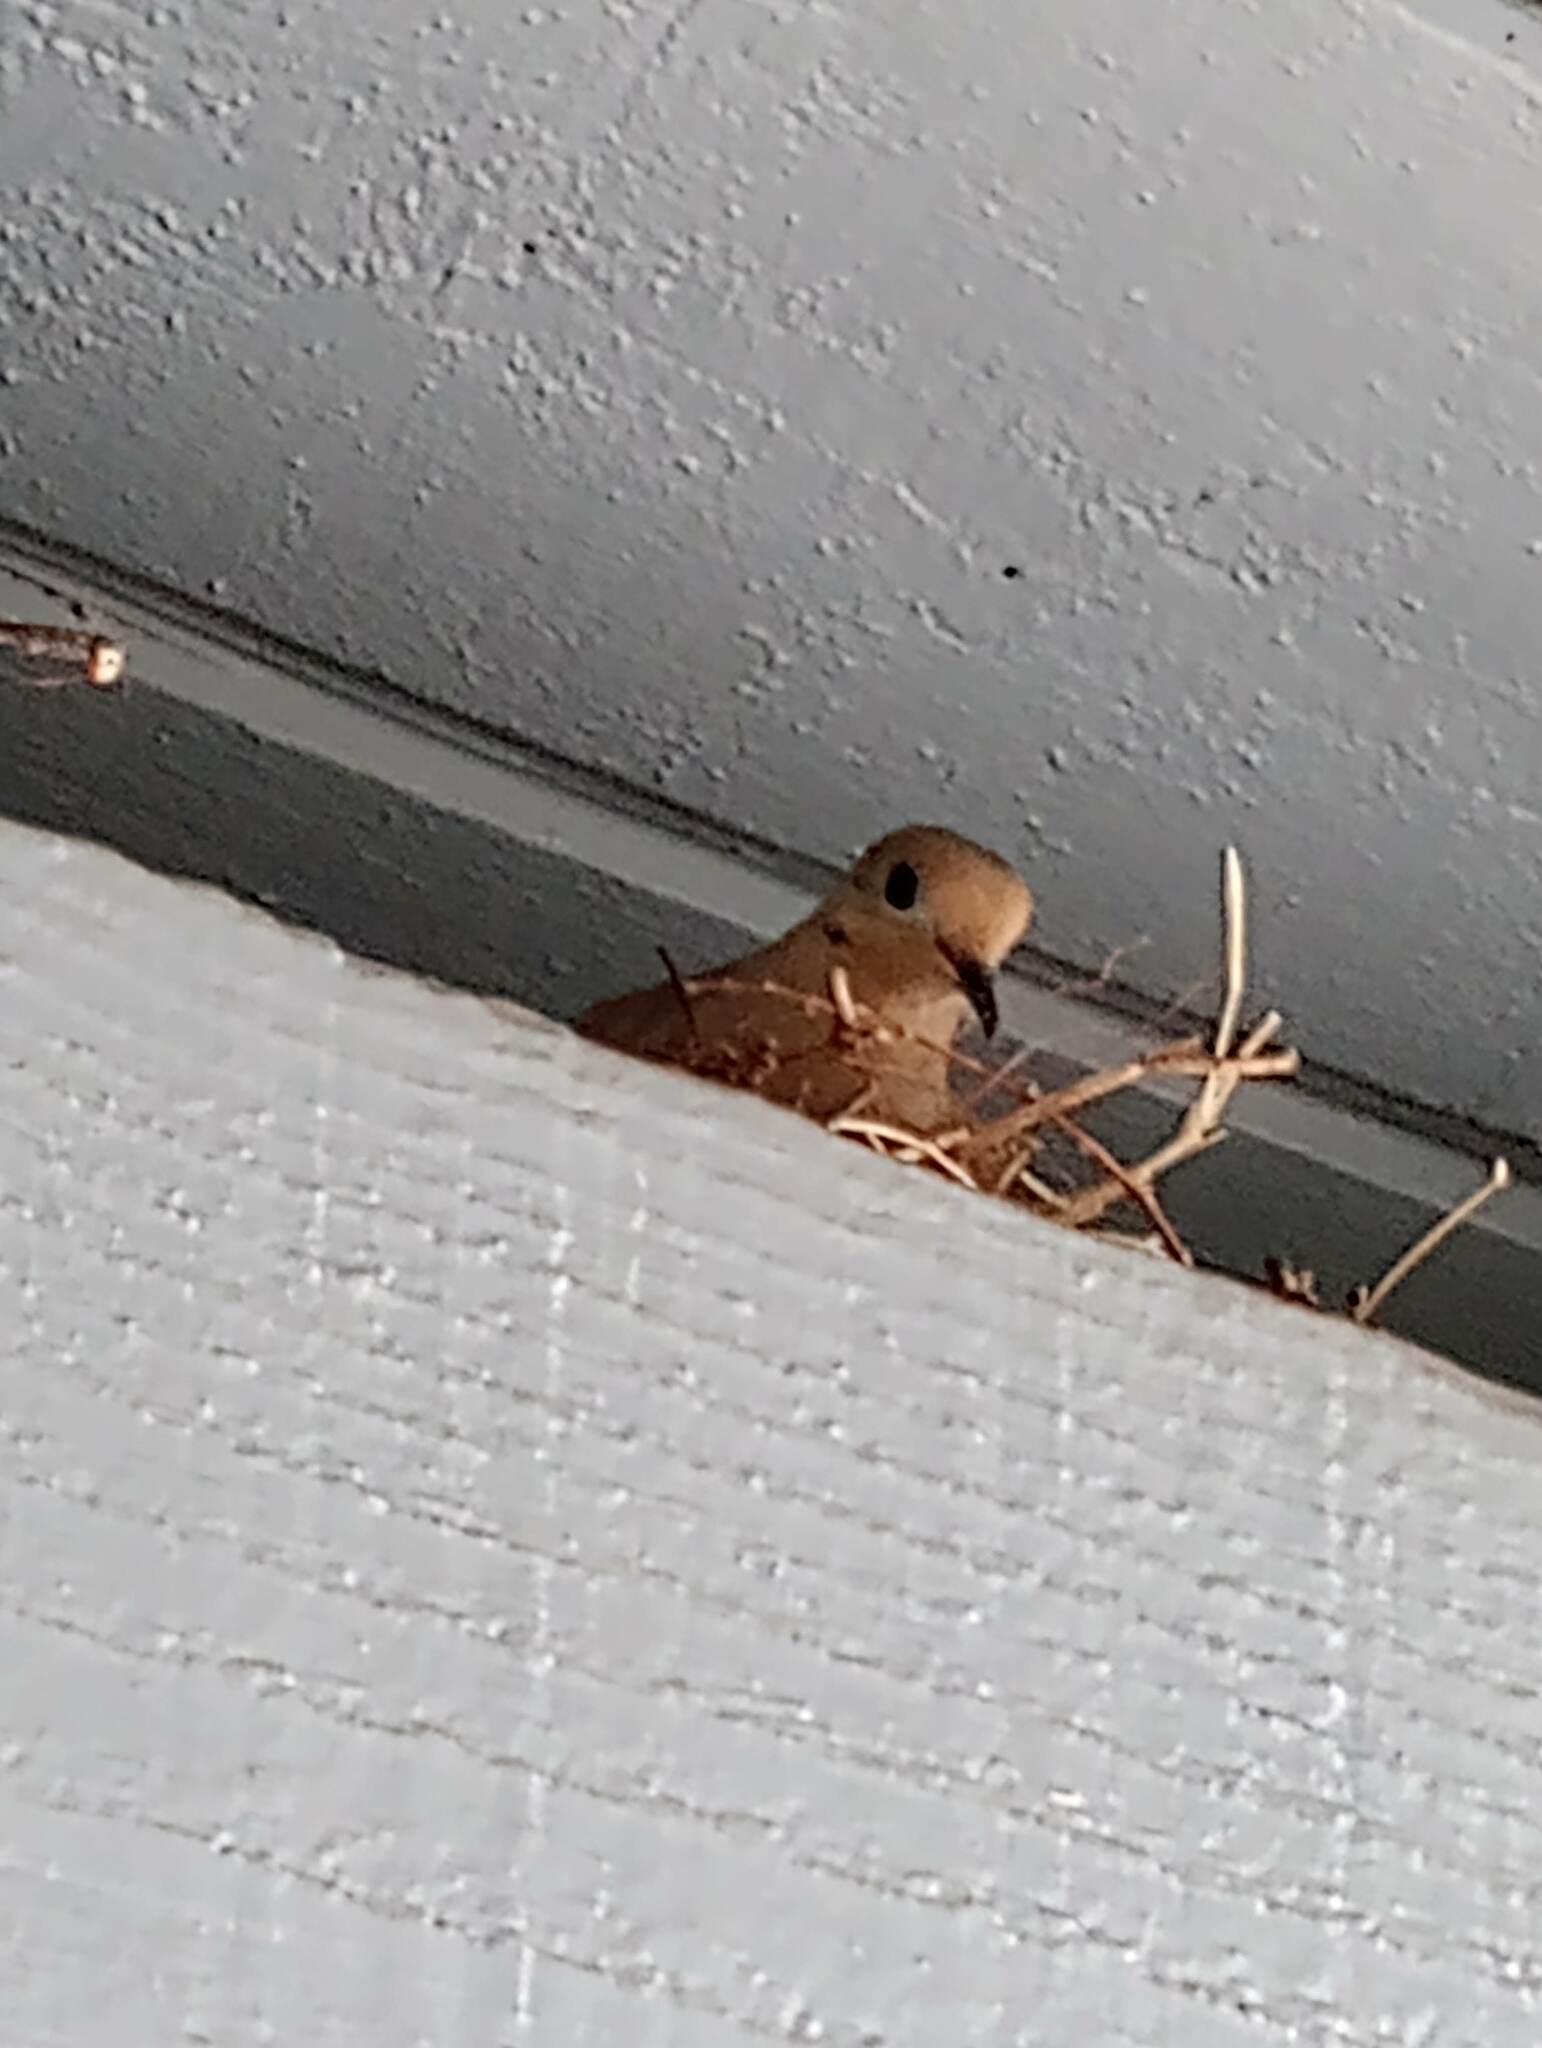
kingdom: Animalia
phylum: Chordata
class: Aves
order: Columbiformes
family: Columbidae
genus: Zenaida
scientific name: Zenaida macroura
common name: Mourning dove
